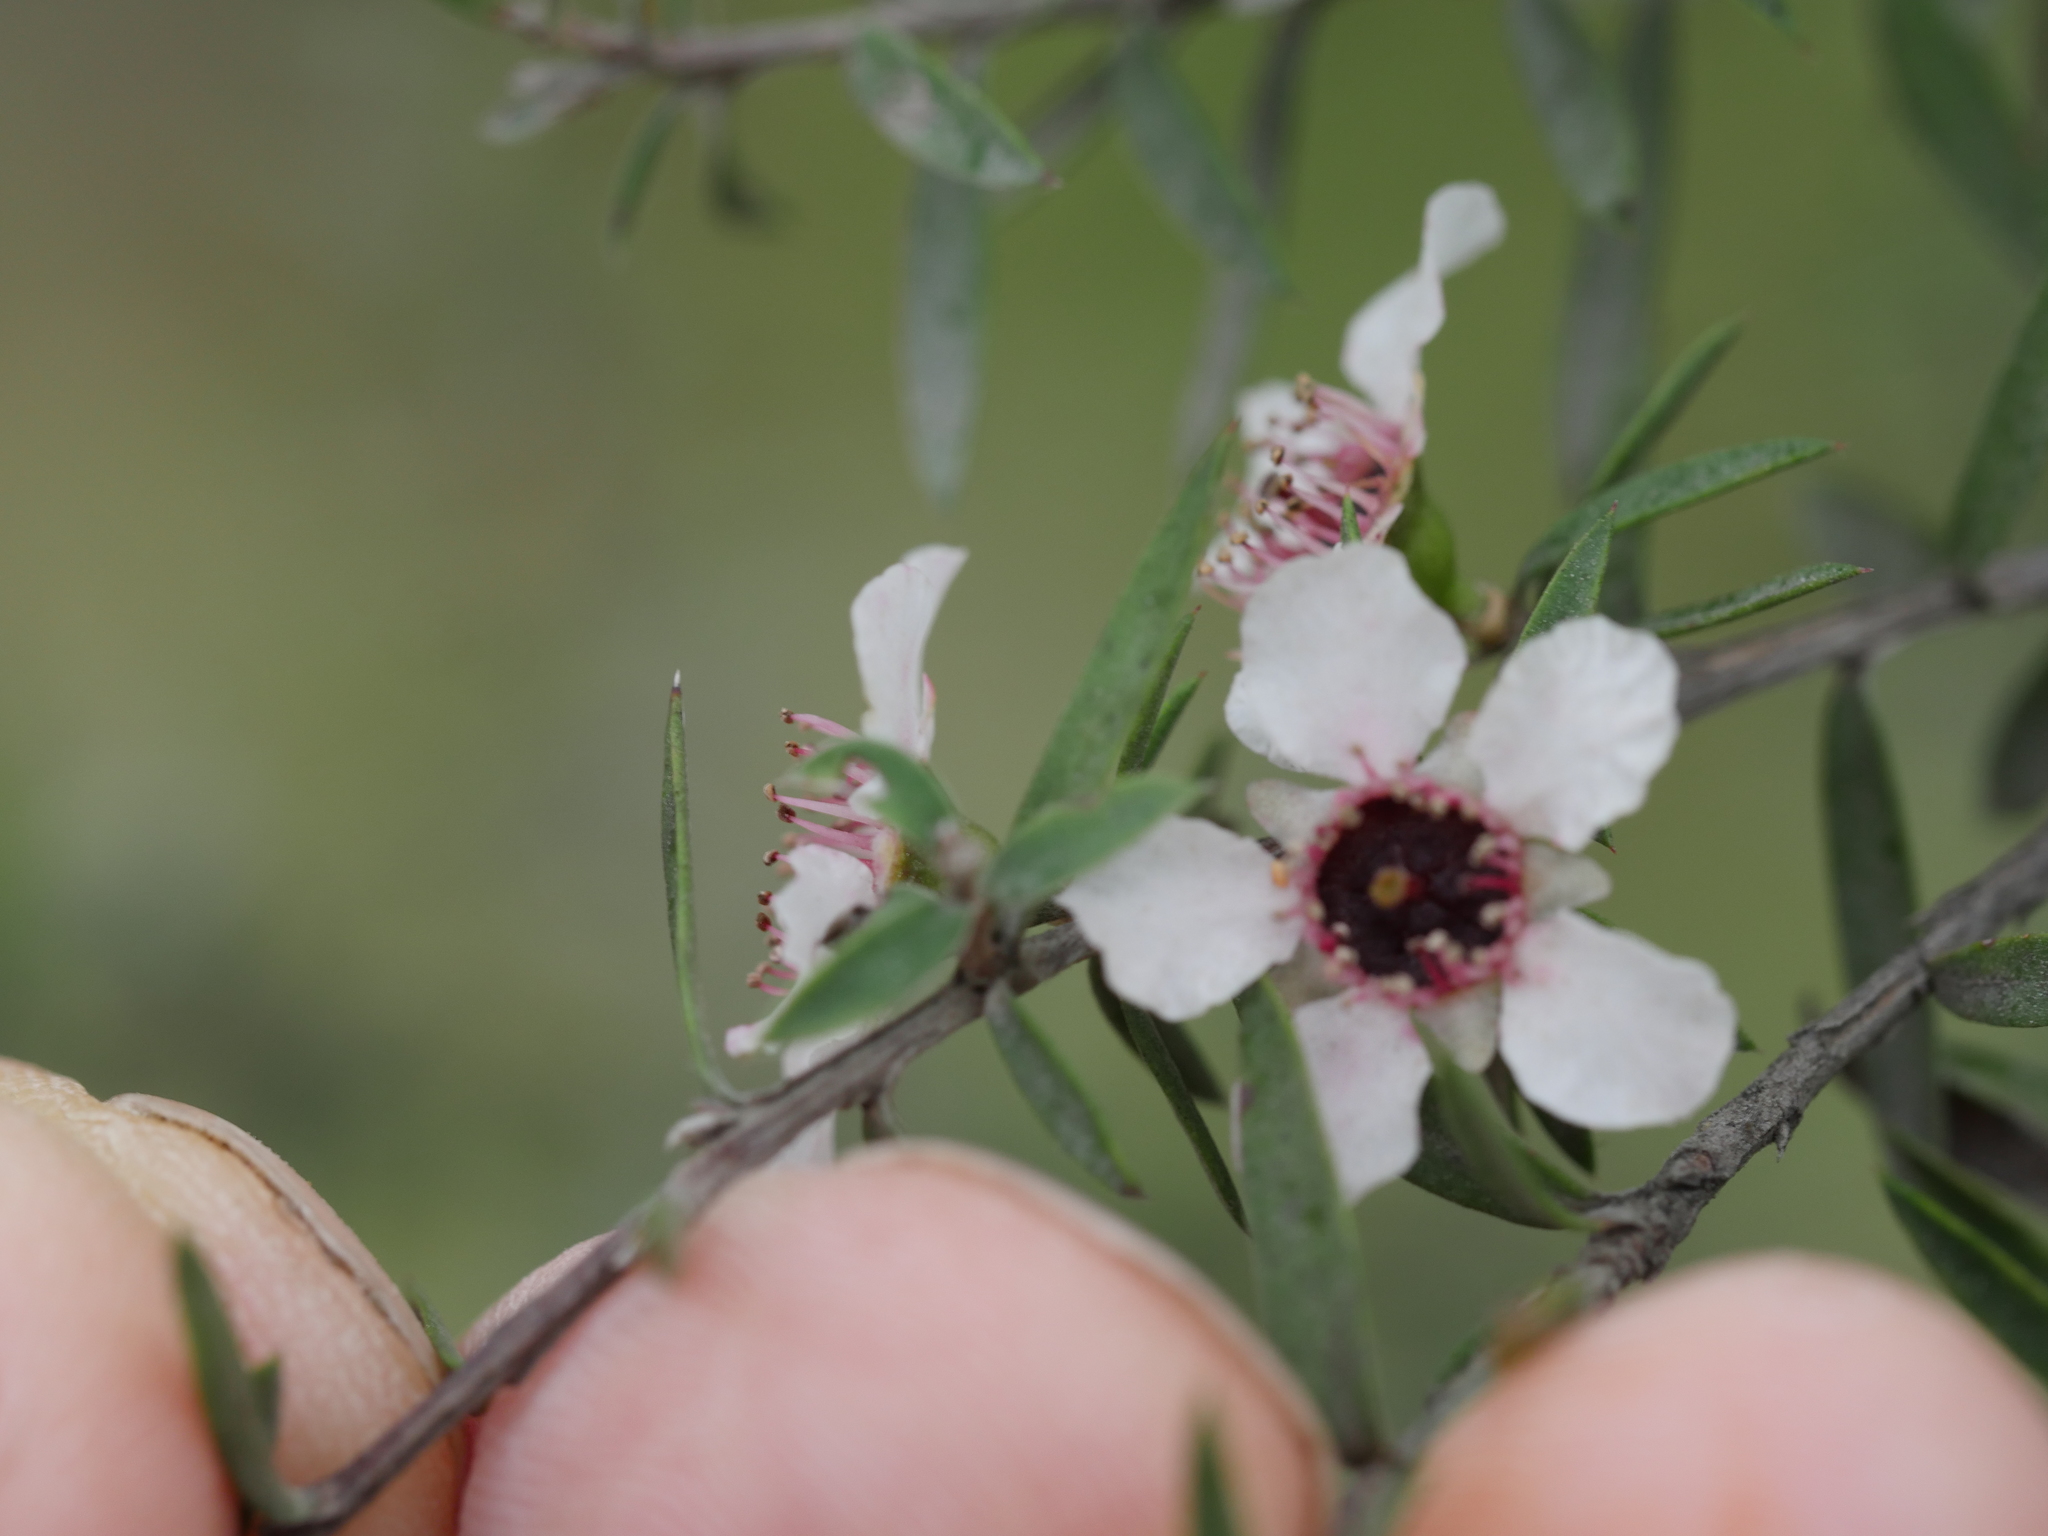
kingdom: Plantae
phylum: Tracheophyta
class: Magnoliopsida
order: Myrtales
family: Myrtaceae
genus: Leptospermum
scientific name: Leptospermum scoparium
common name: Broom tea-tree
